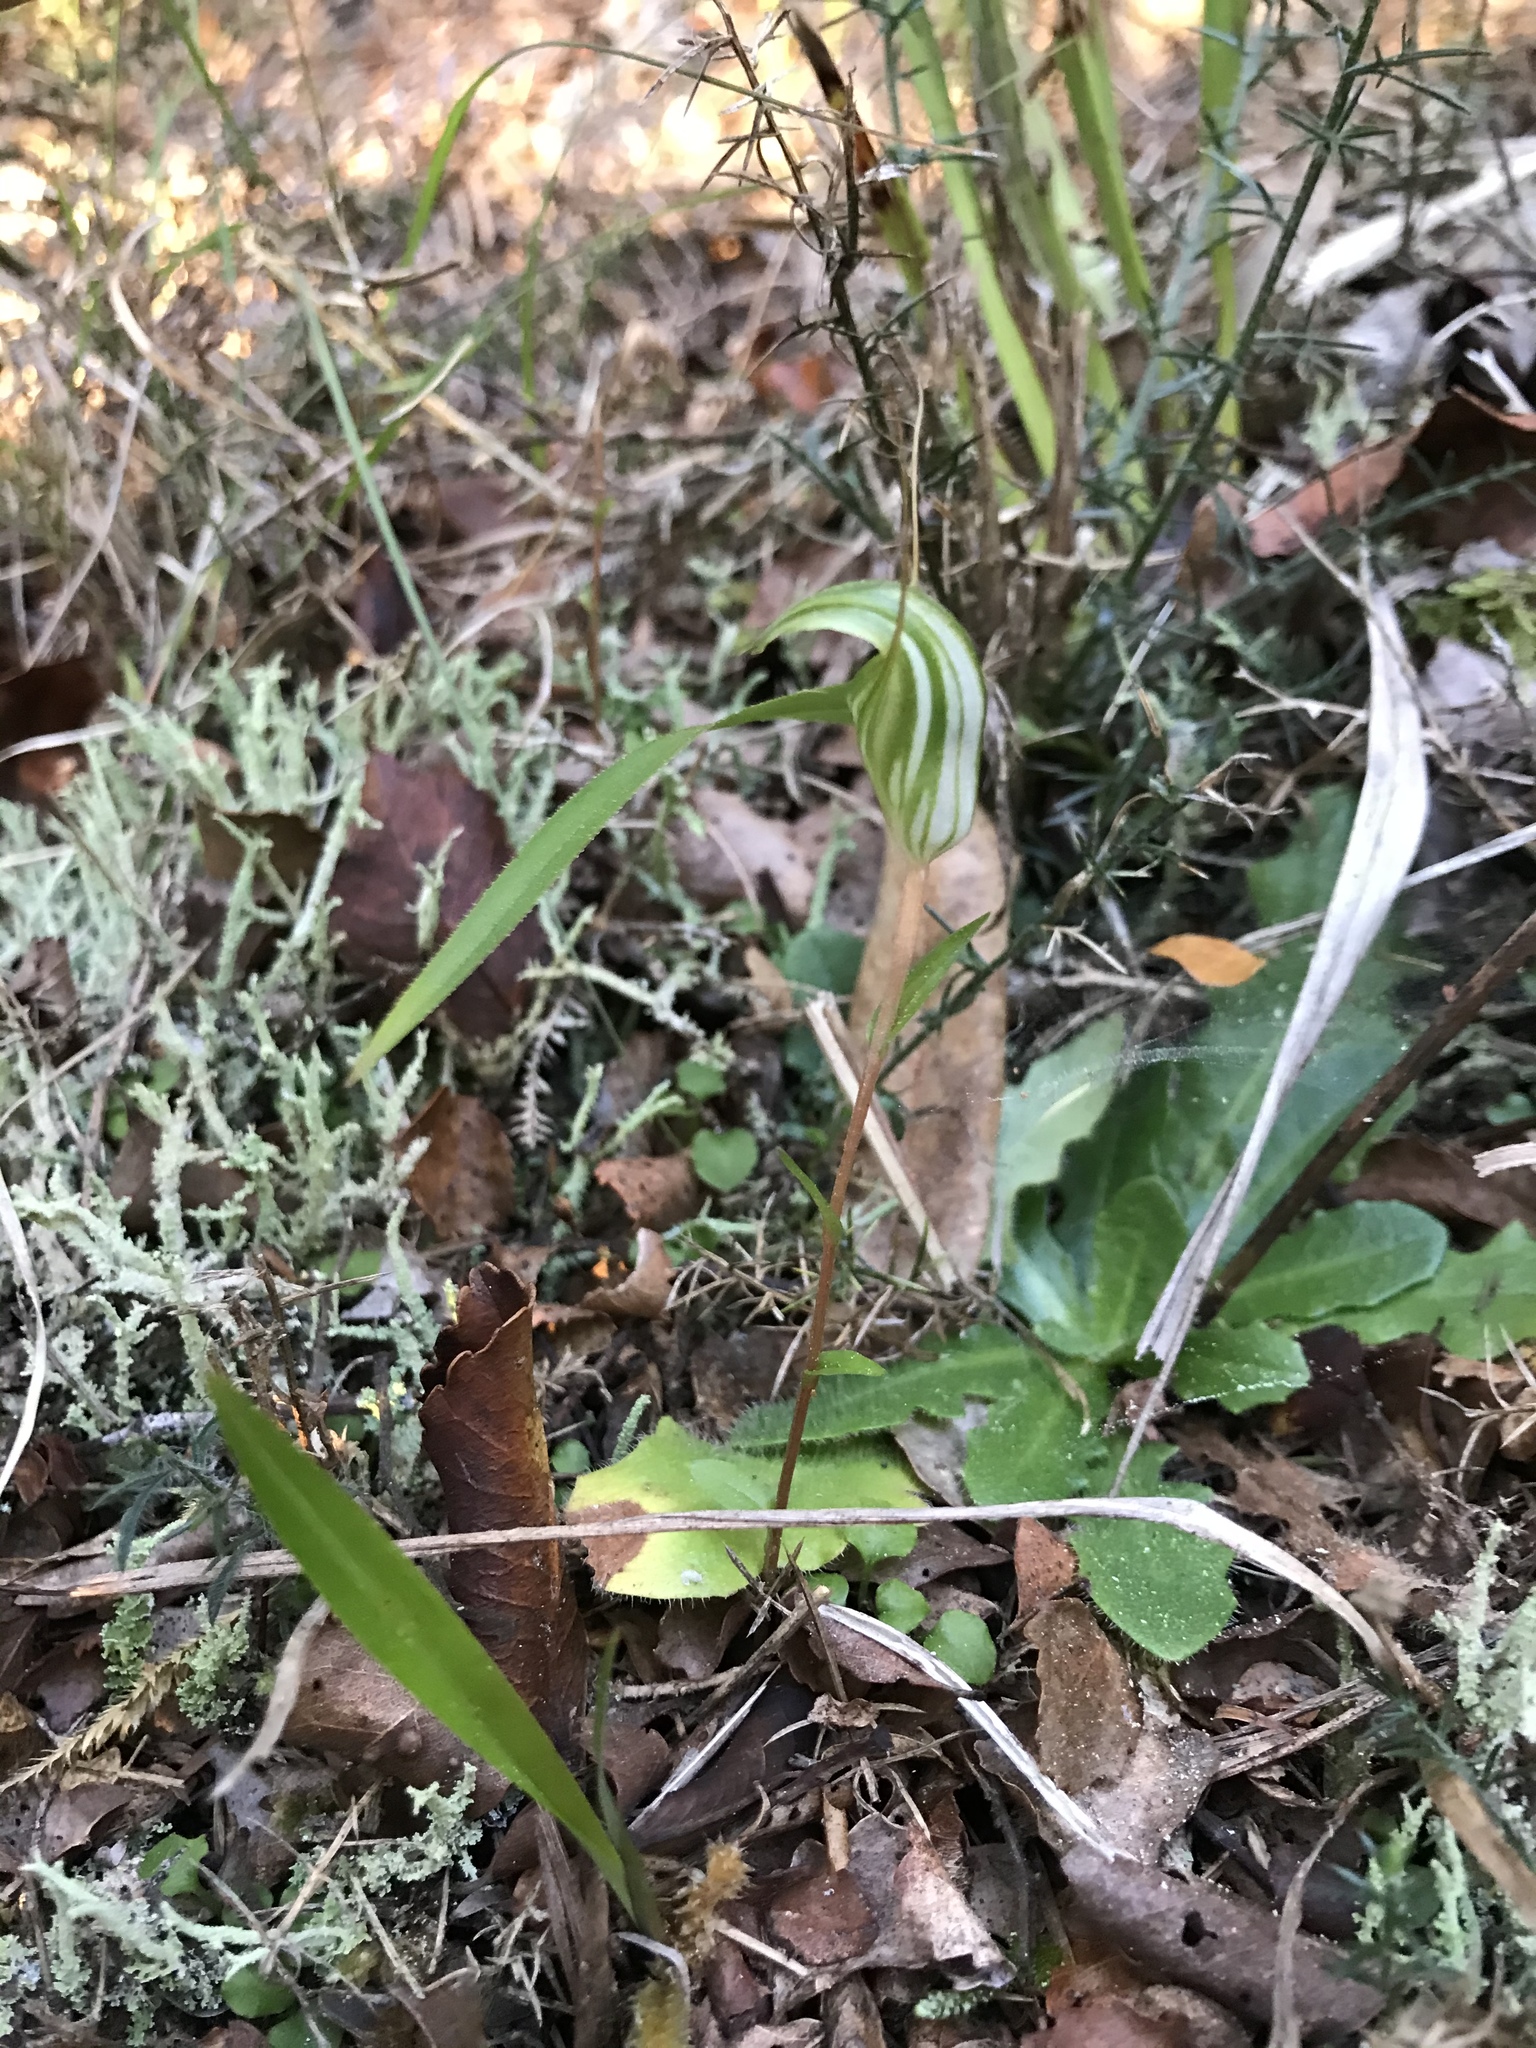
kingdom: Plantae
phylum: Tracheophyta
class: Liliopsida
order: Asparagales
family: Orchidaceae
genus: Pterostylis
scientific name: Pterostylis alobula
